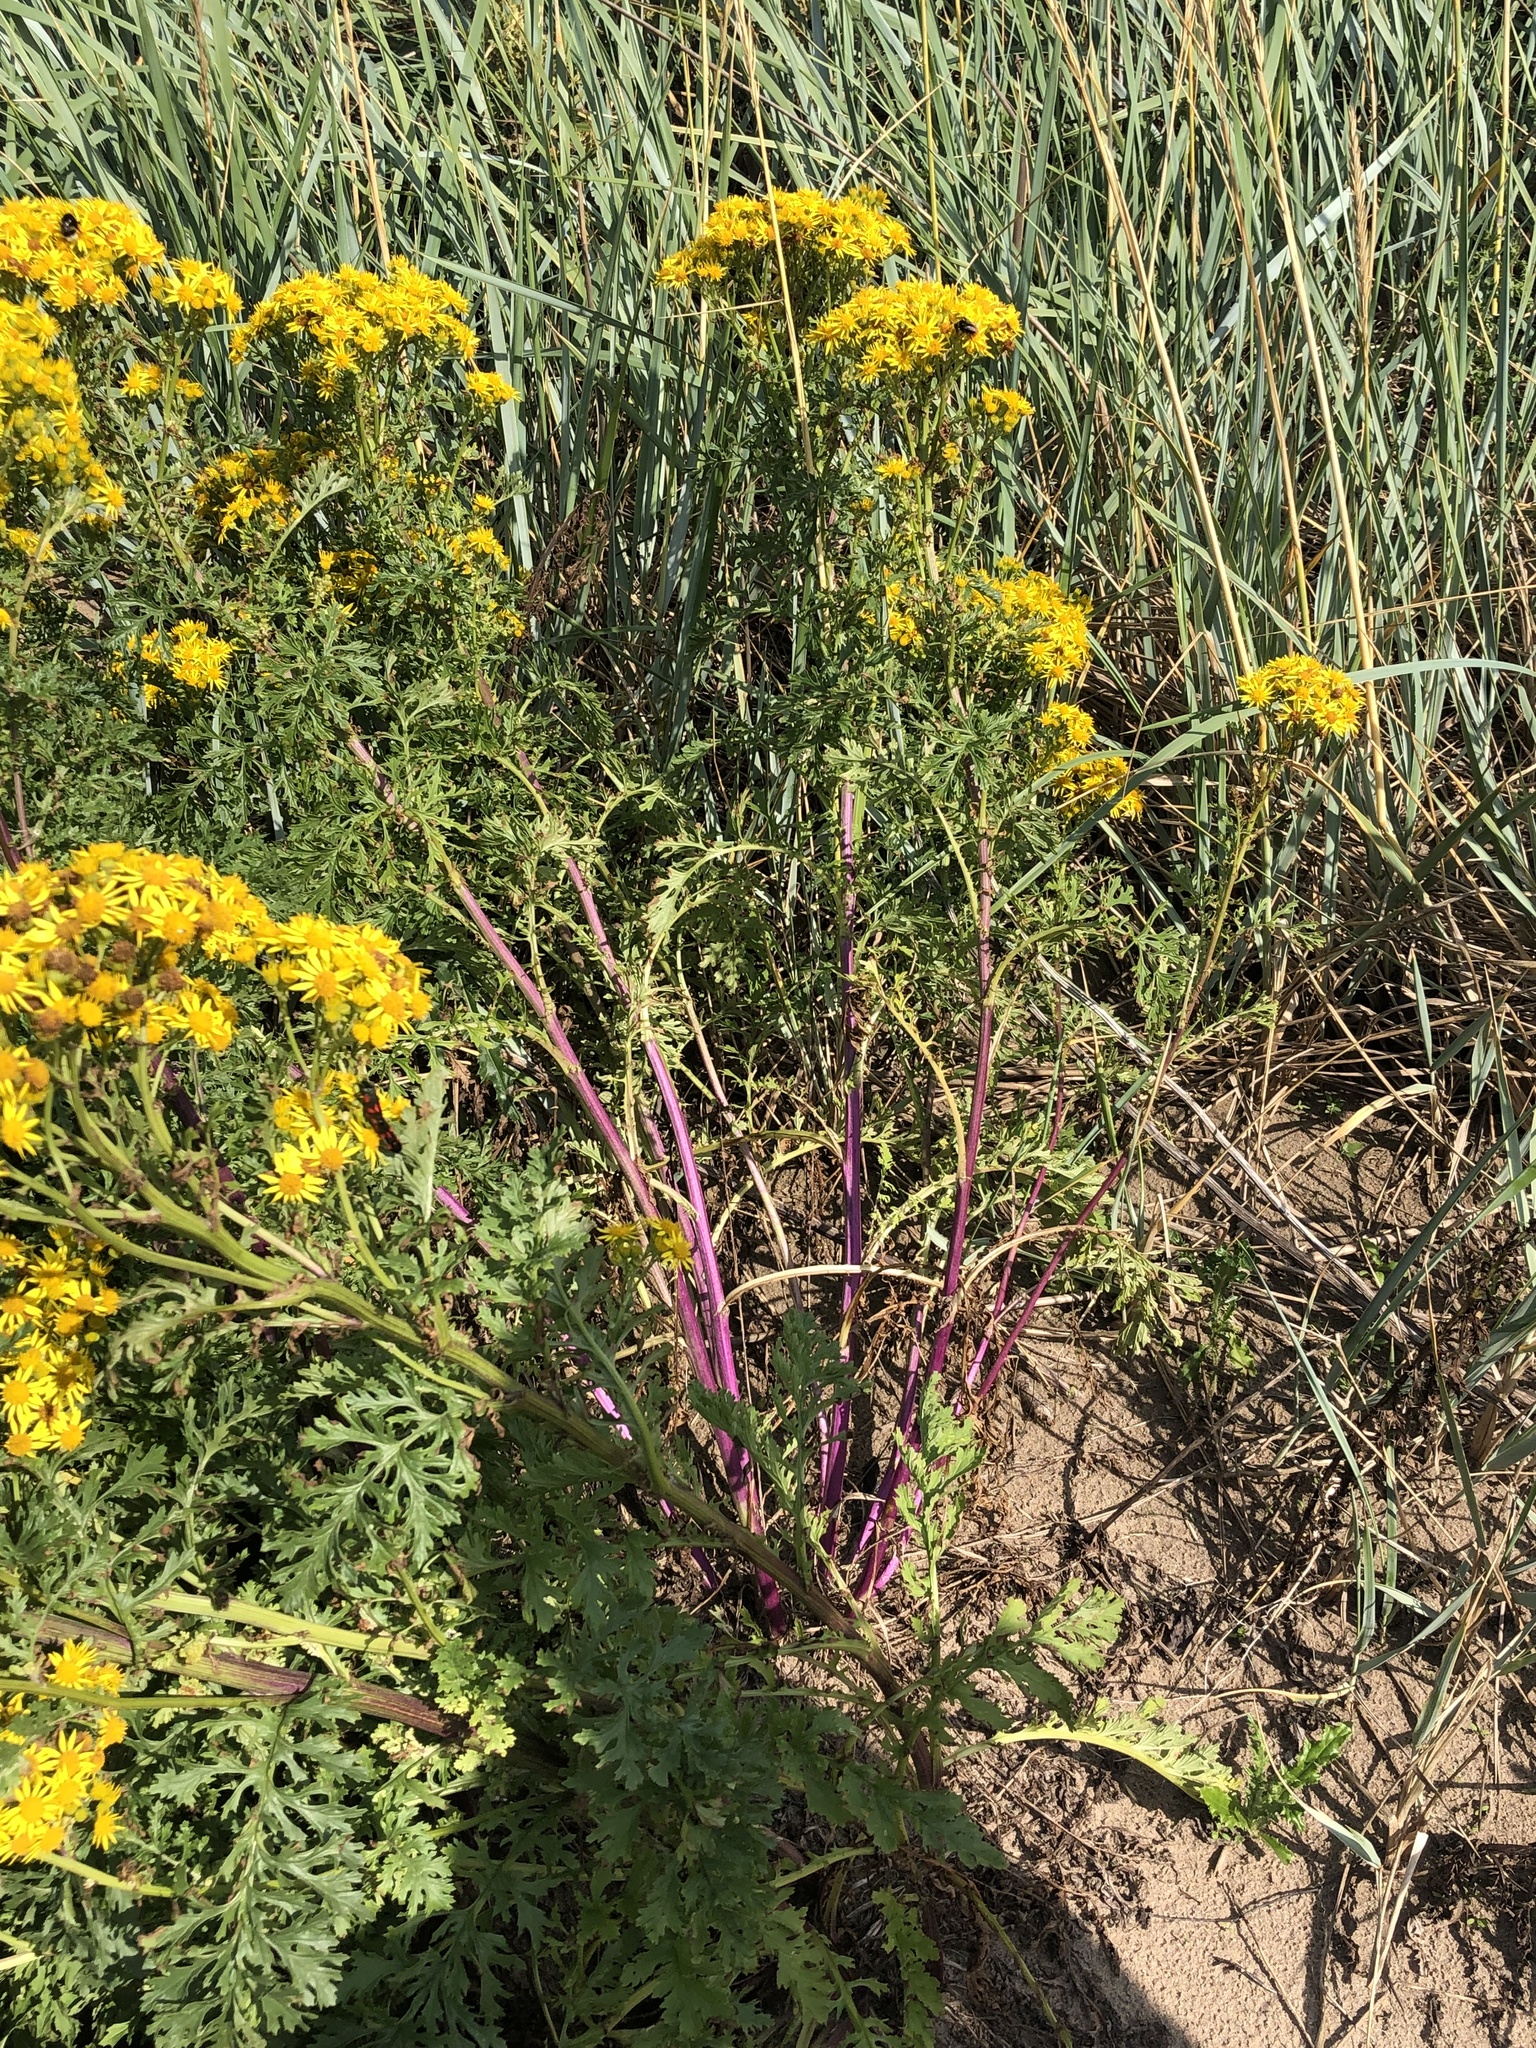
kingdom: Plantae
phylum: Tracheophyta
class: Magnoliopsida
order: Asterales
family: Asteraceae
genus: Jacobaea
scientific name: Jacobaea vulgaris
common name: Stinking willie
